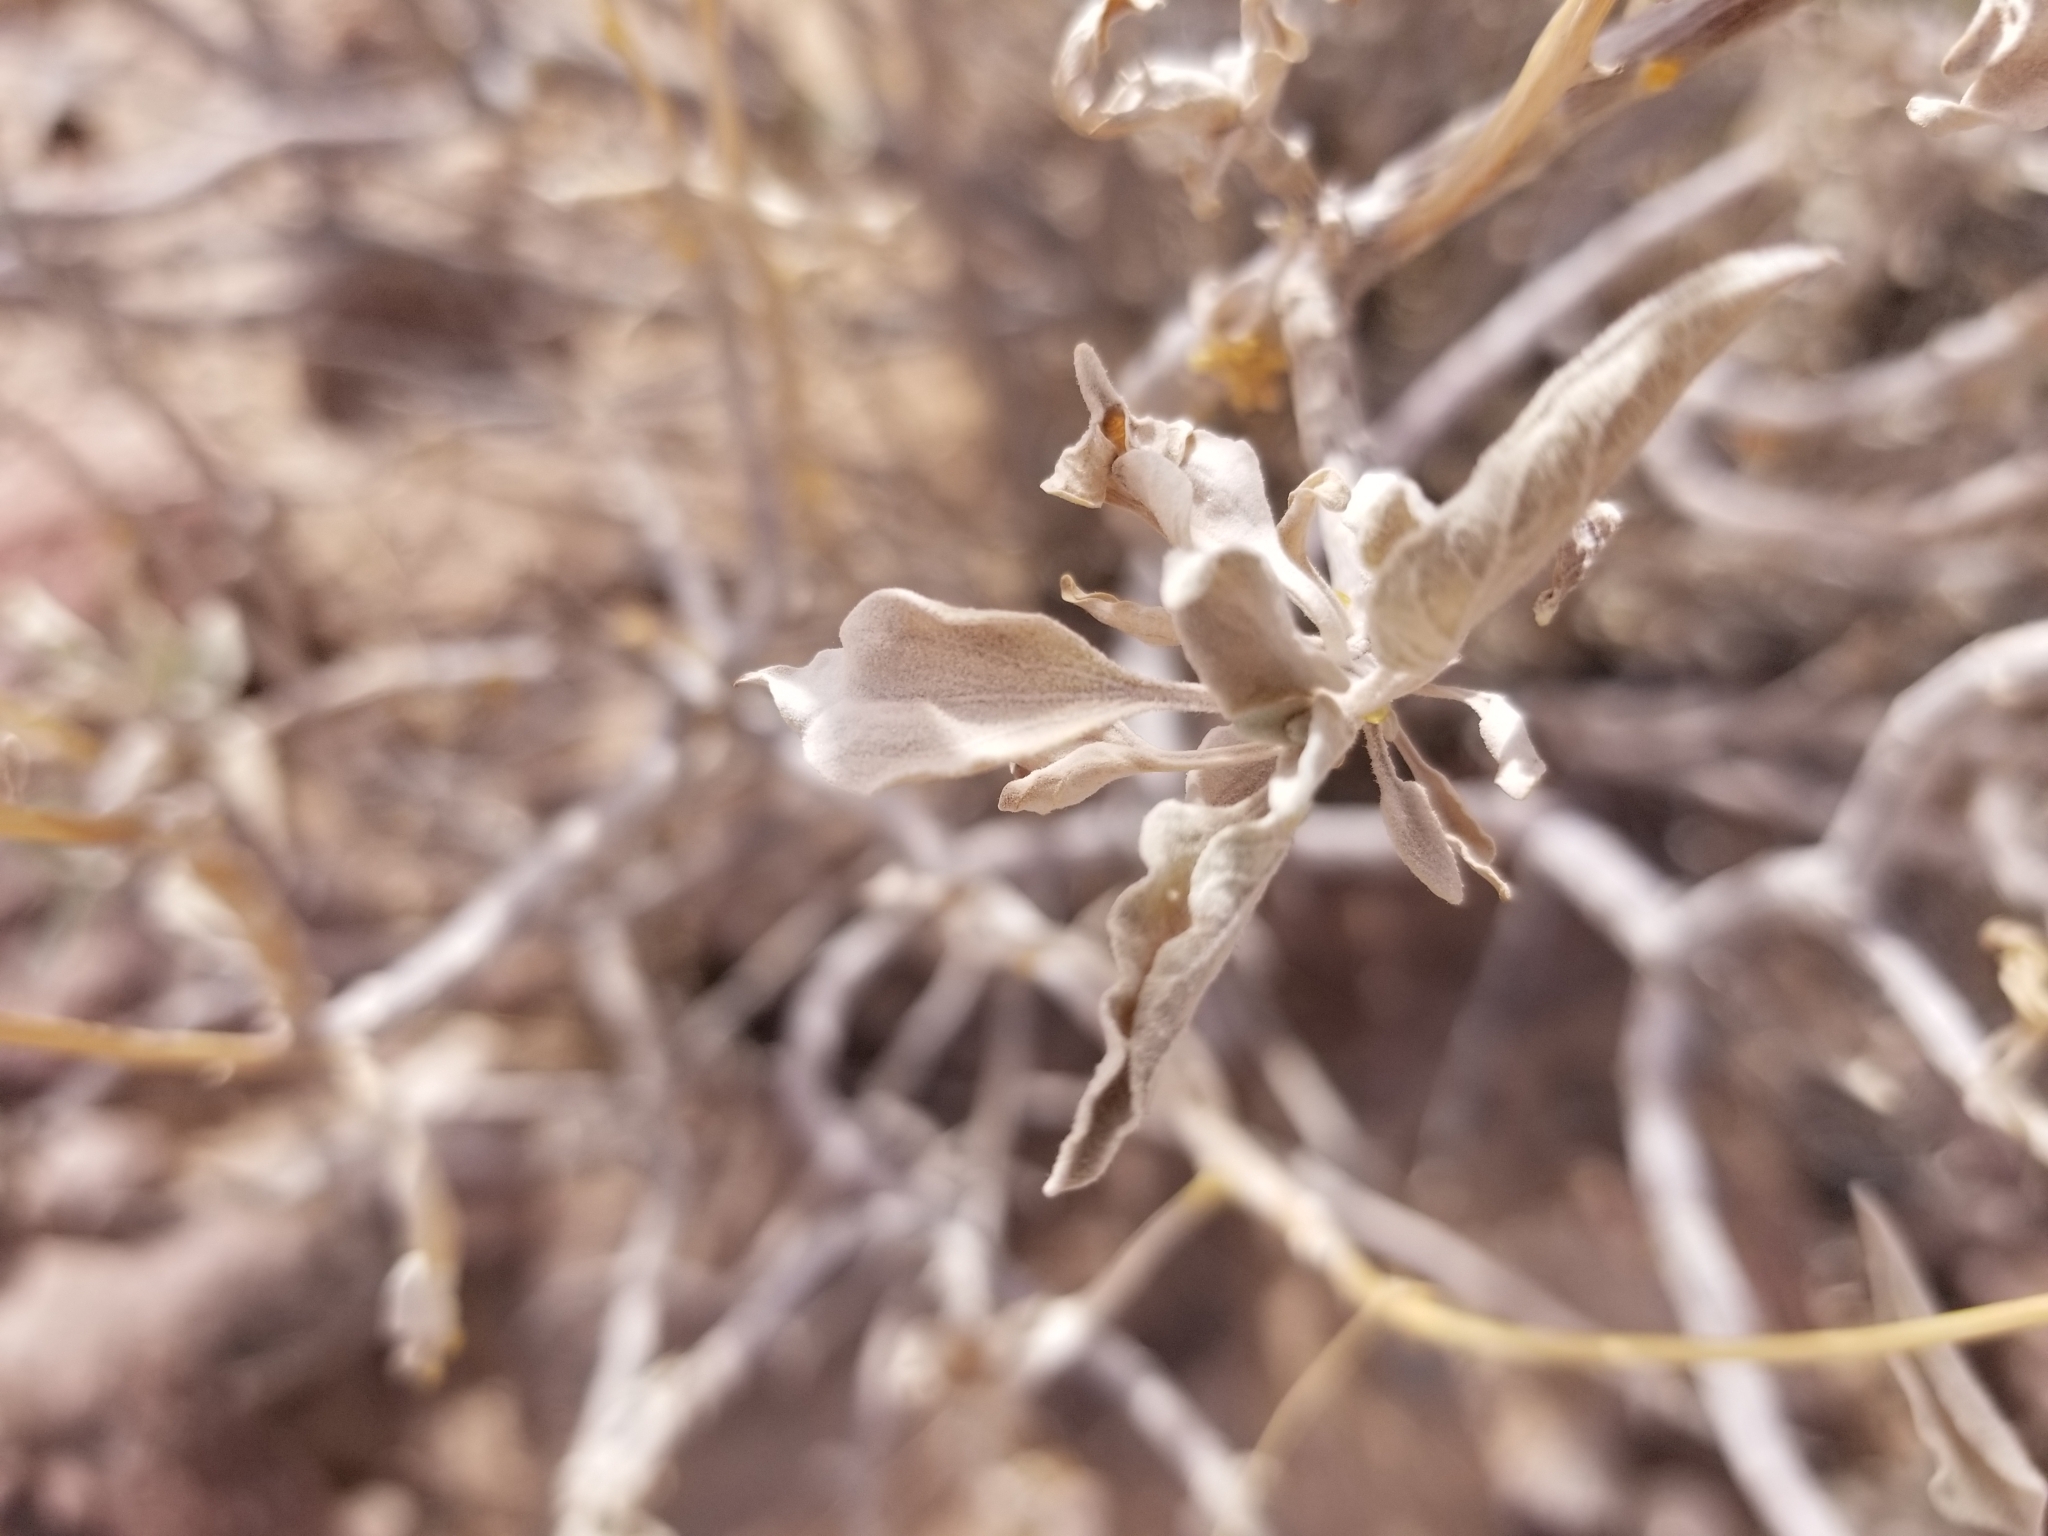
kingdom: Plantae
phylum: Tracheophyta
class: Magnoliopsida
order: Asterales
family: Asteraceae
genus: Encelia
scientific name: Encelia farinosa
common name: Brittlebush
